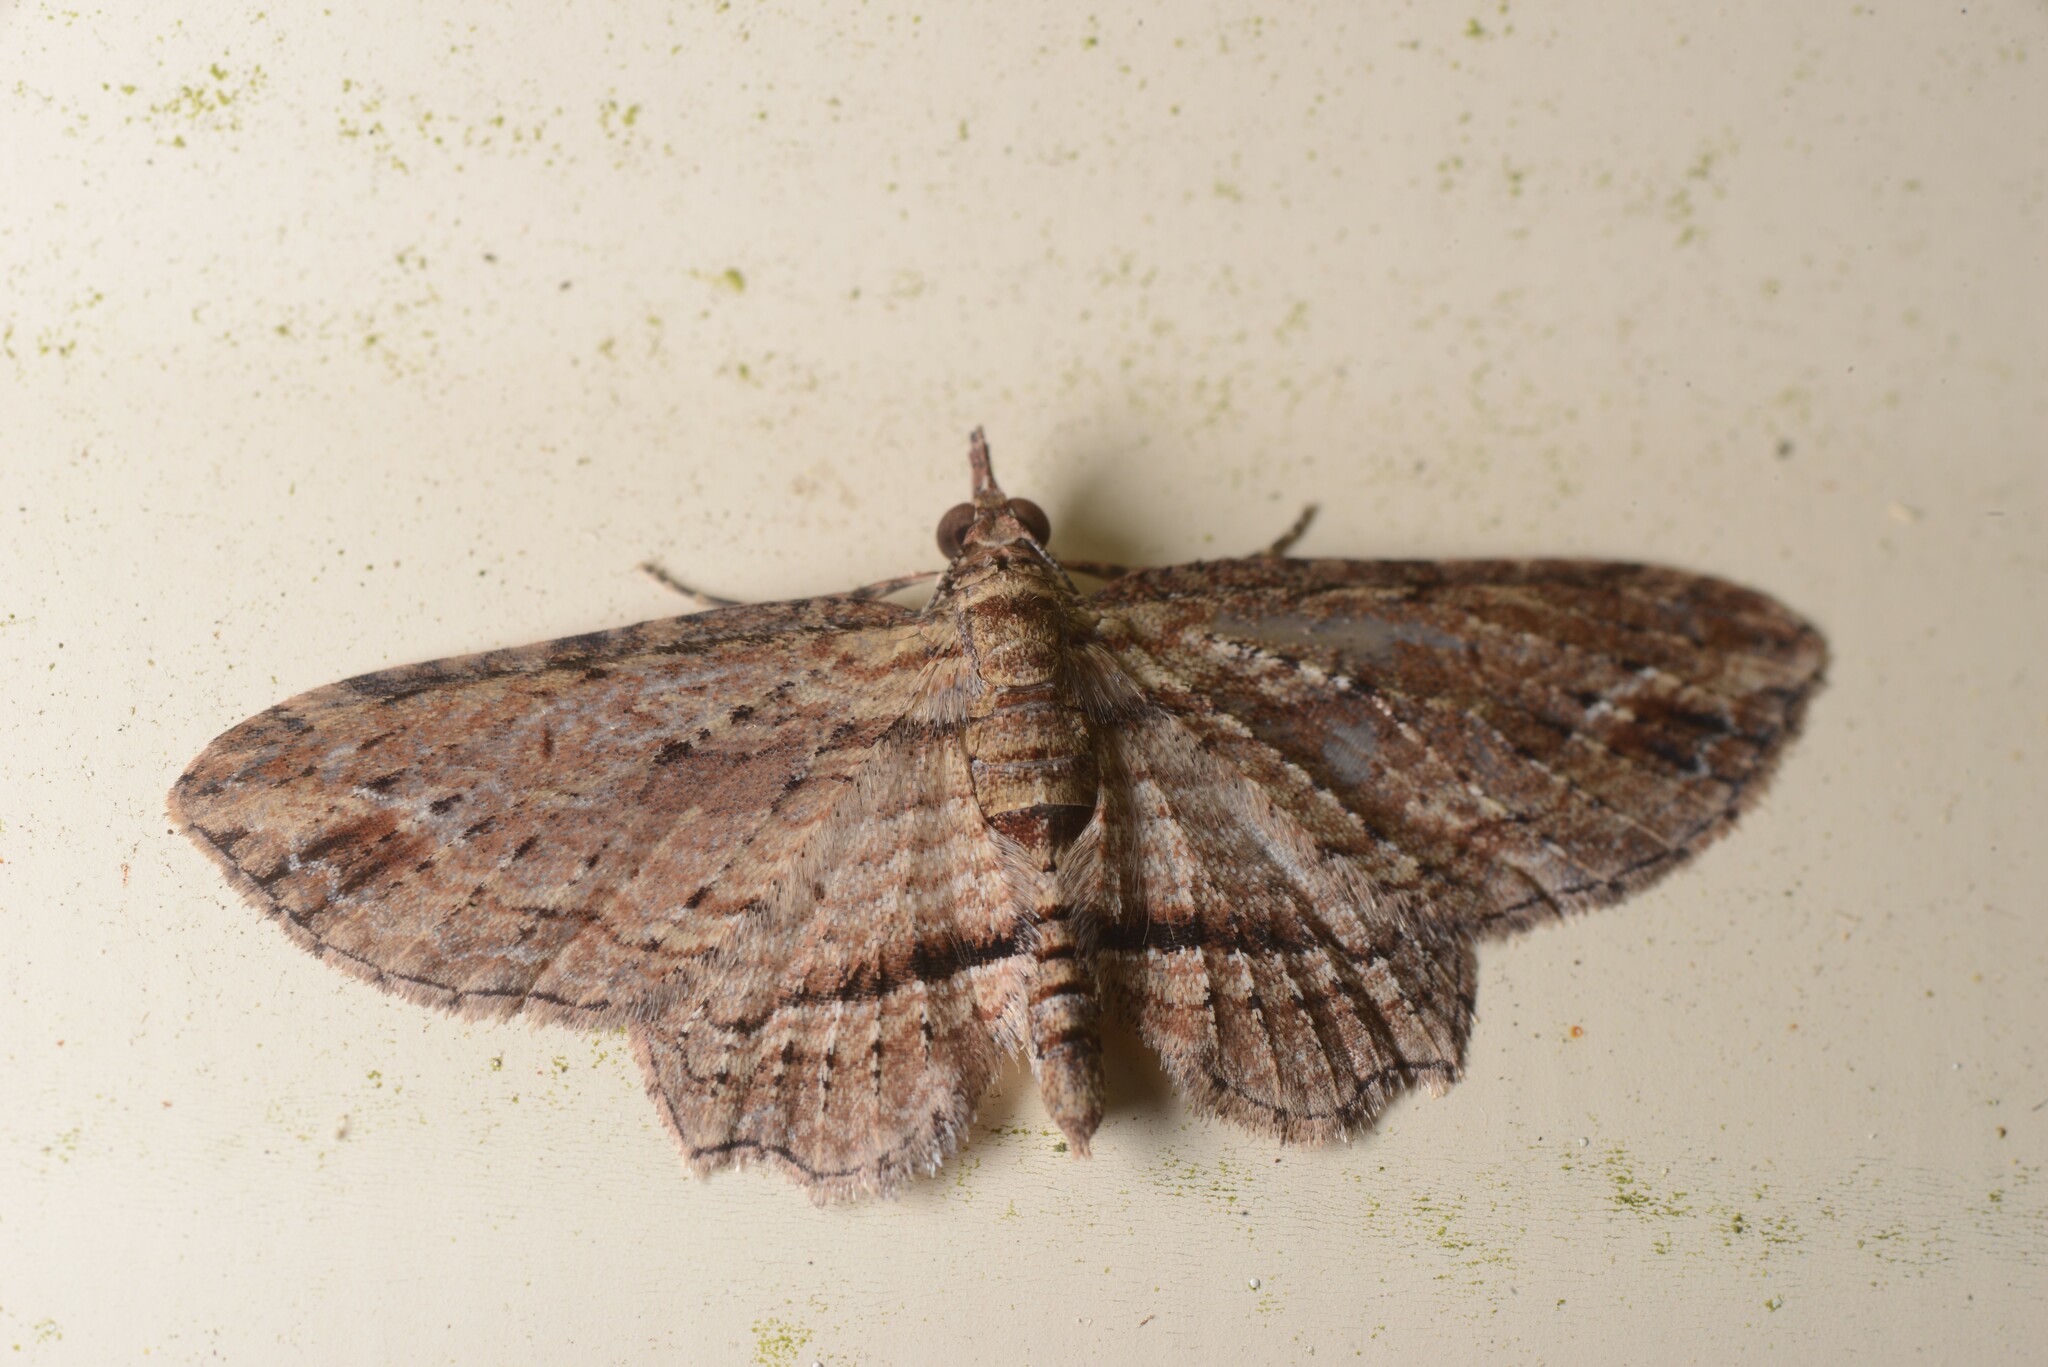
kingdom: Animalia
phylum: Arthropoda
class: Insecta
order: Lepidoptera
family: Geometridae
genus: Chloroclystis
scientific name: Chloroclystis filata
